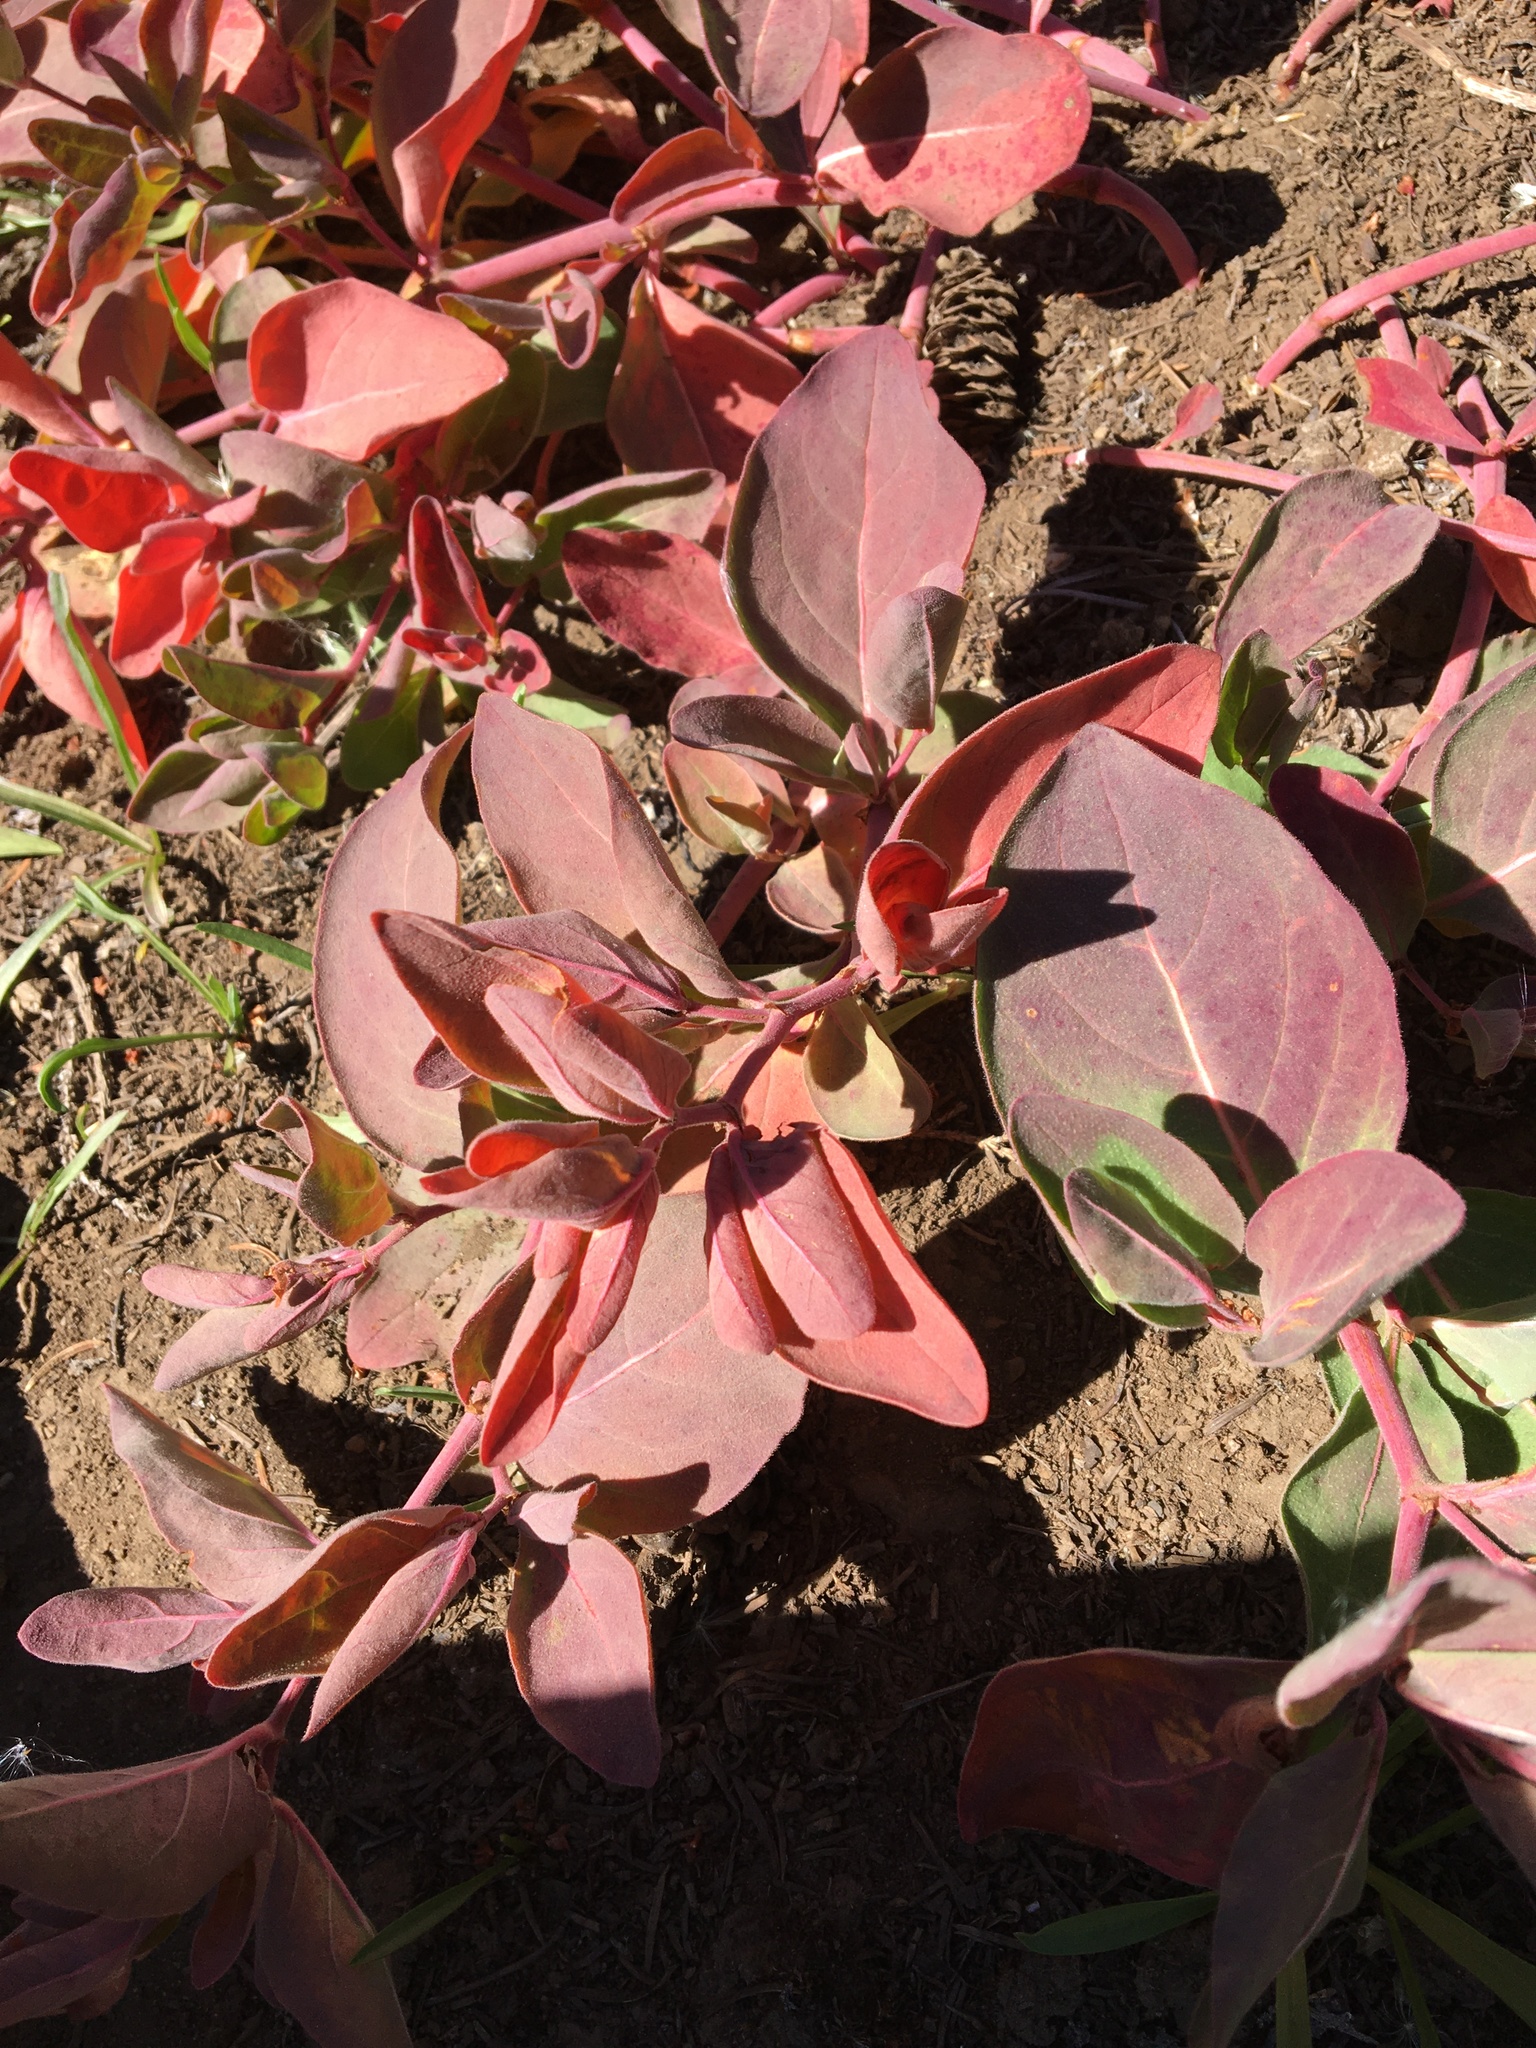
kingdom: Plantae
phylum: Tracheophyta
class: Magnoliopsida
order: Caryophyllales
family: Polygonaceae
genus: Koenigia
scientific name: Koenigia davisiae
